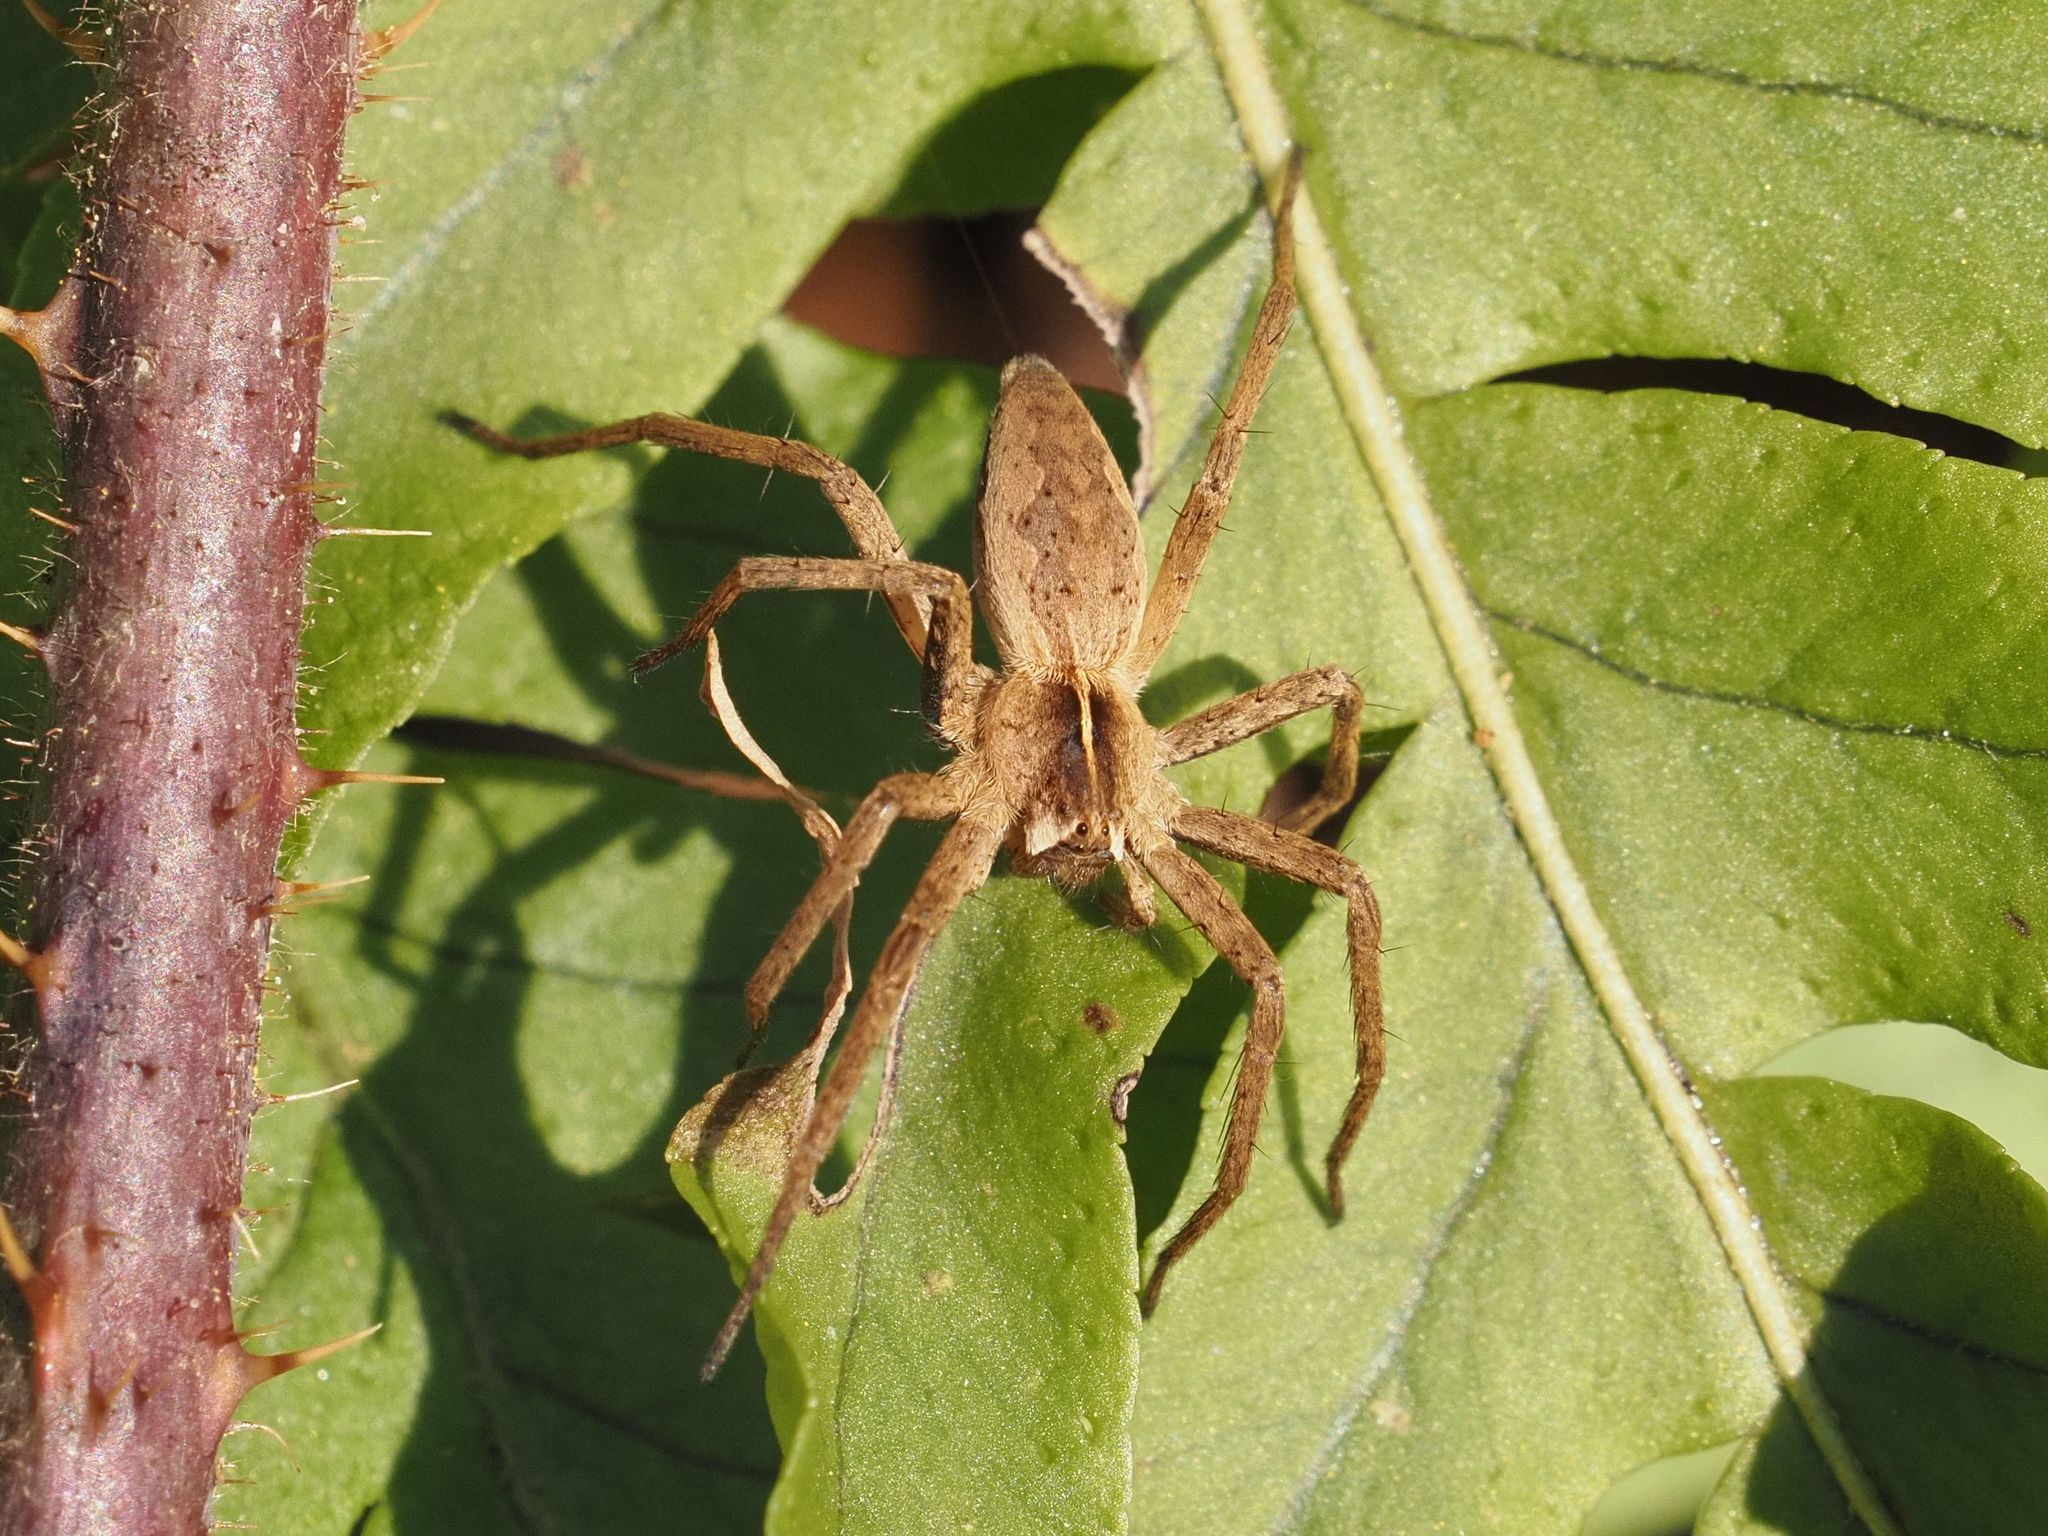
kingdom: Animalia
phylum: Arthropoda
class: Arachnida
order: Araneae
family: Pisauridae
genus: Pisaura
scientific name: Pisaura mirabilis
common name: Tent spider
